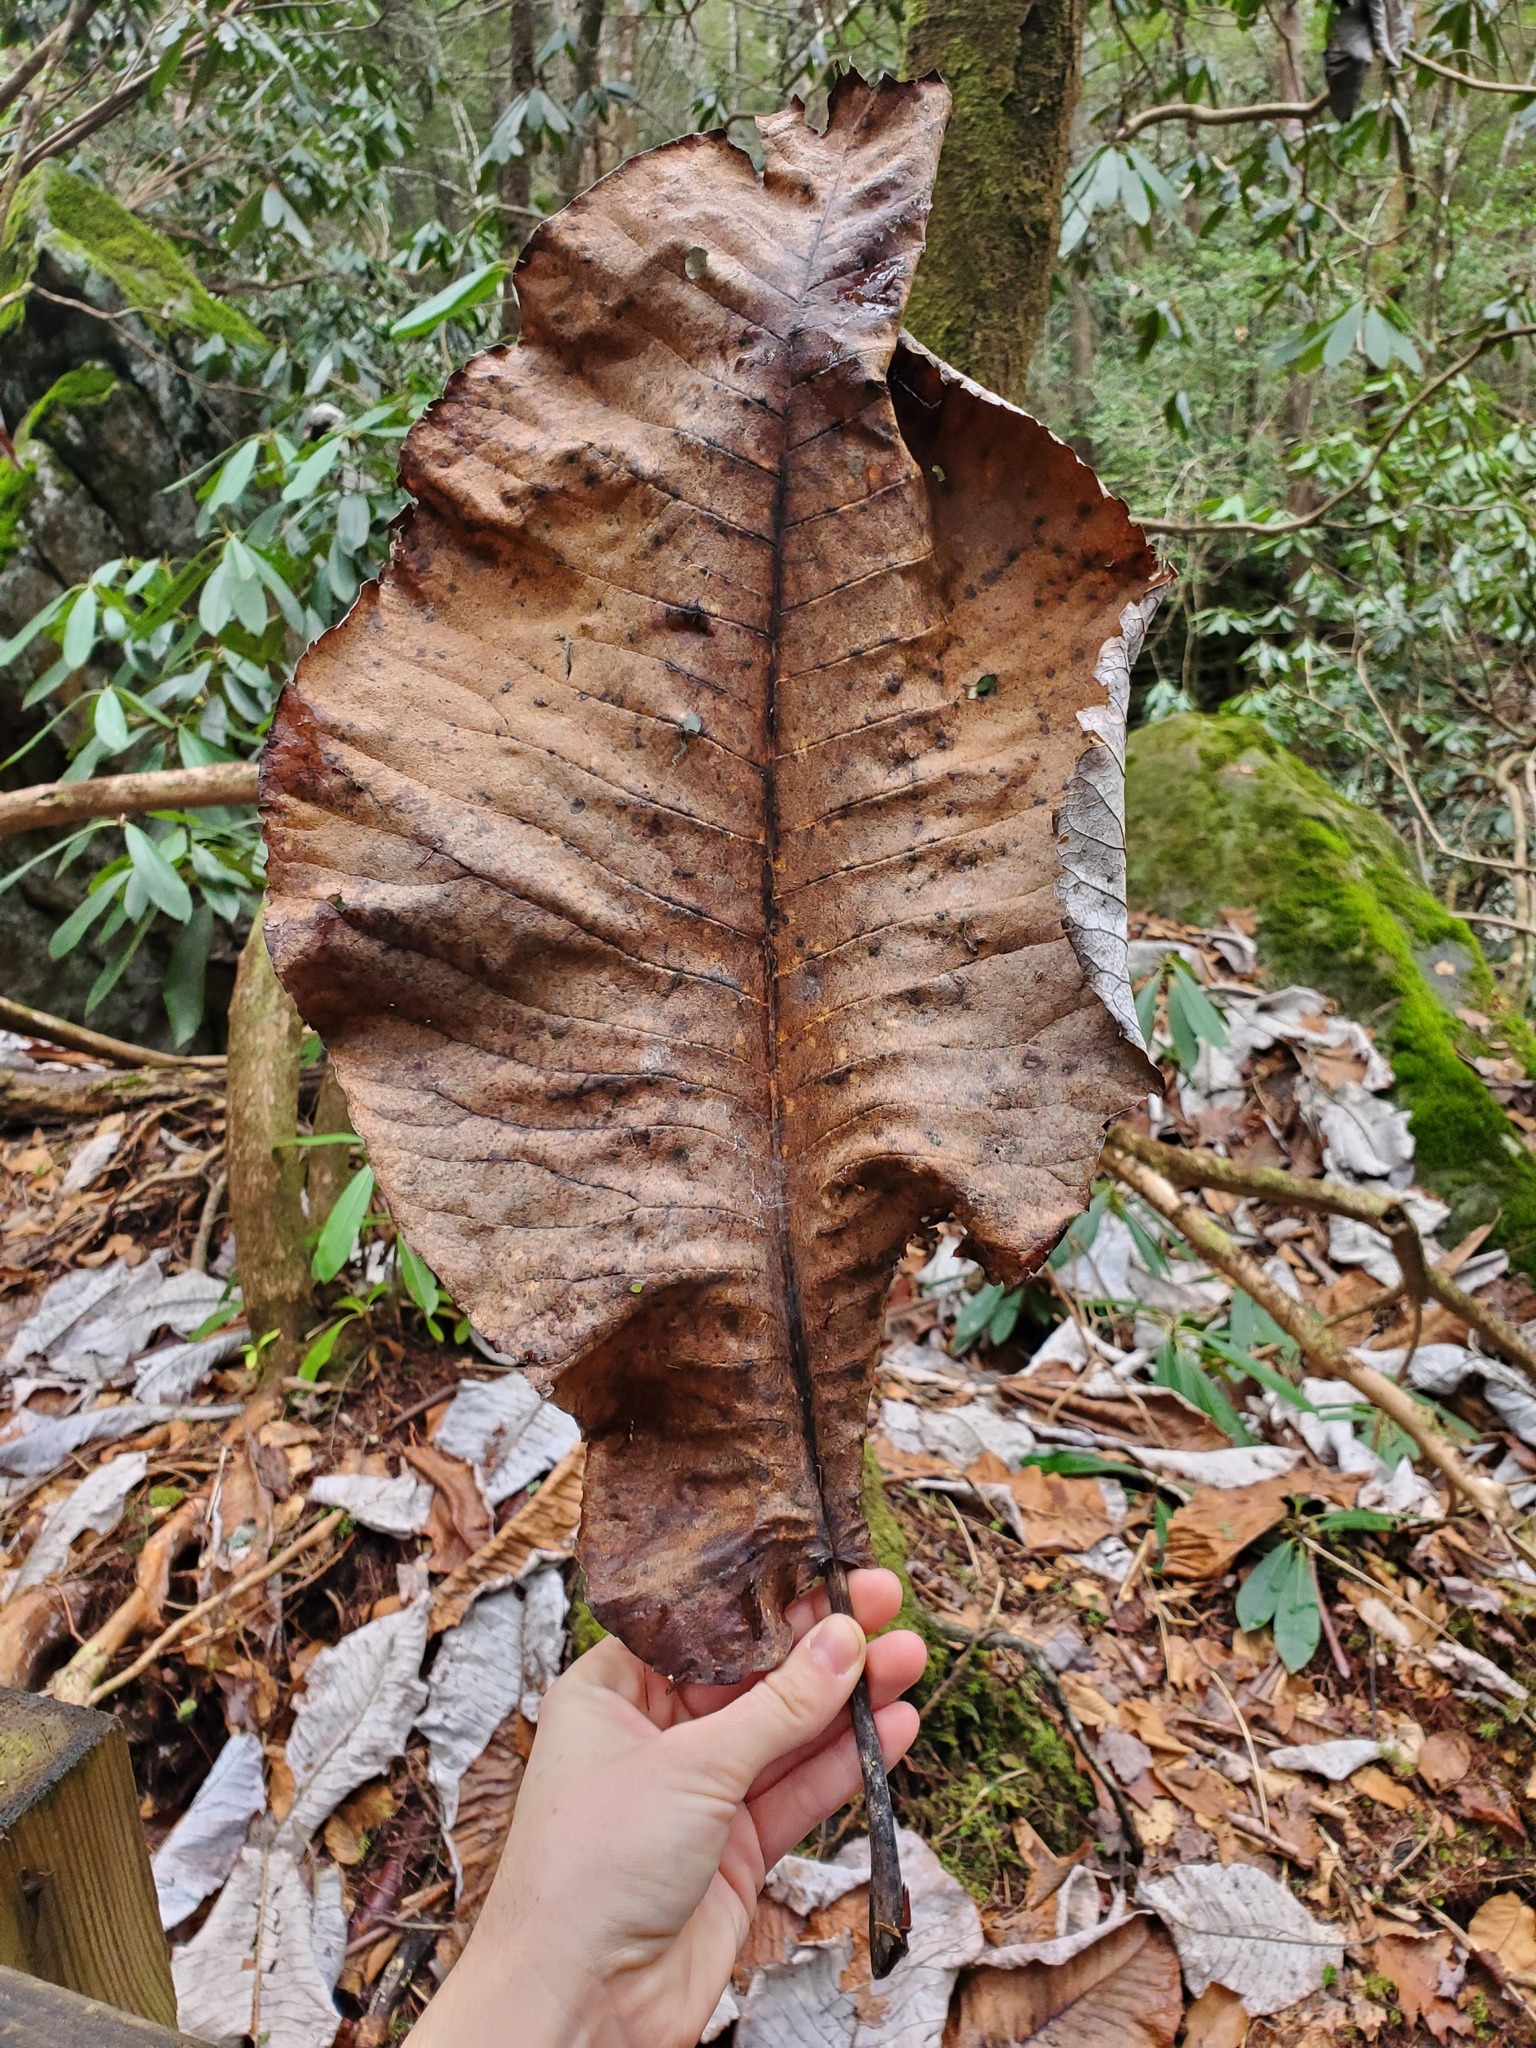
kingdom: Plantae
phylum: Tracheophyta
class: Magnoliopsida
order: Magnoliales
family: Magnoliaceae
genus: Magnolia
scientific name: Magnolia macrophylla
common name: Big-leaf magnolia
